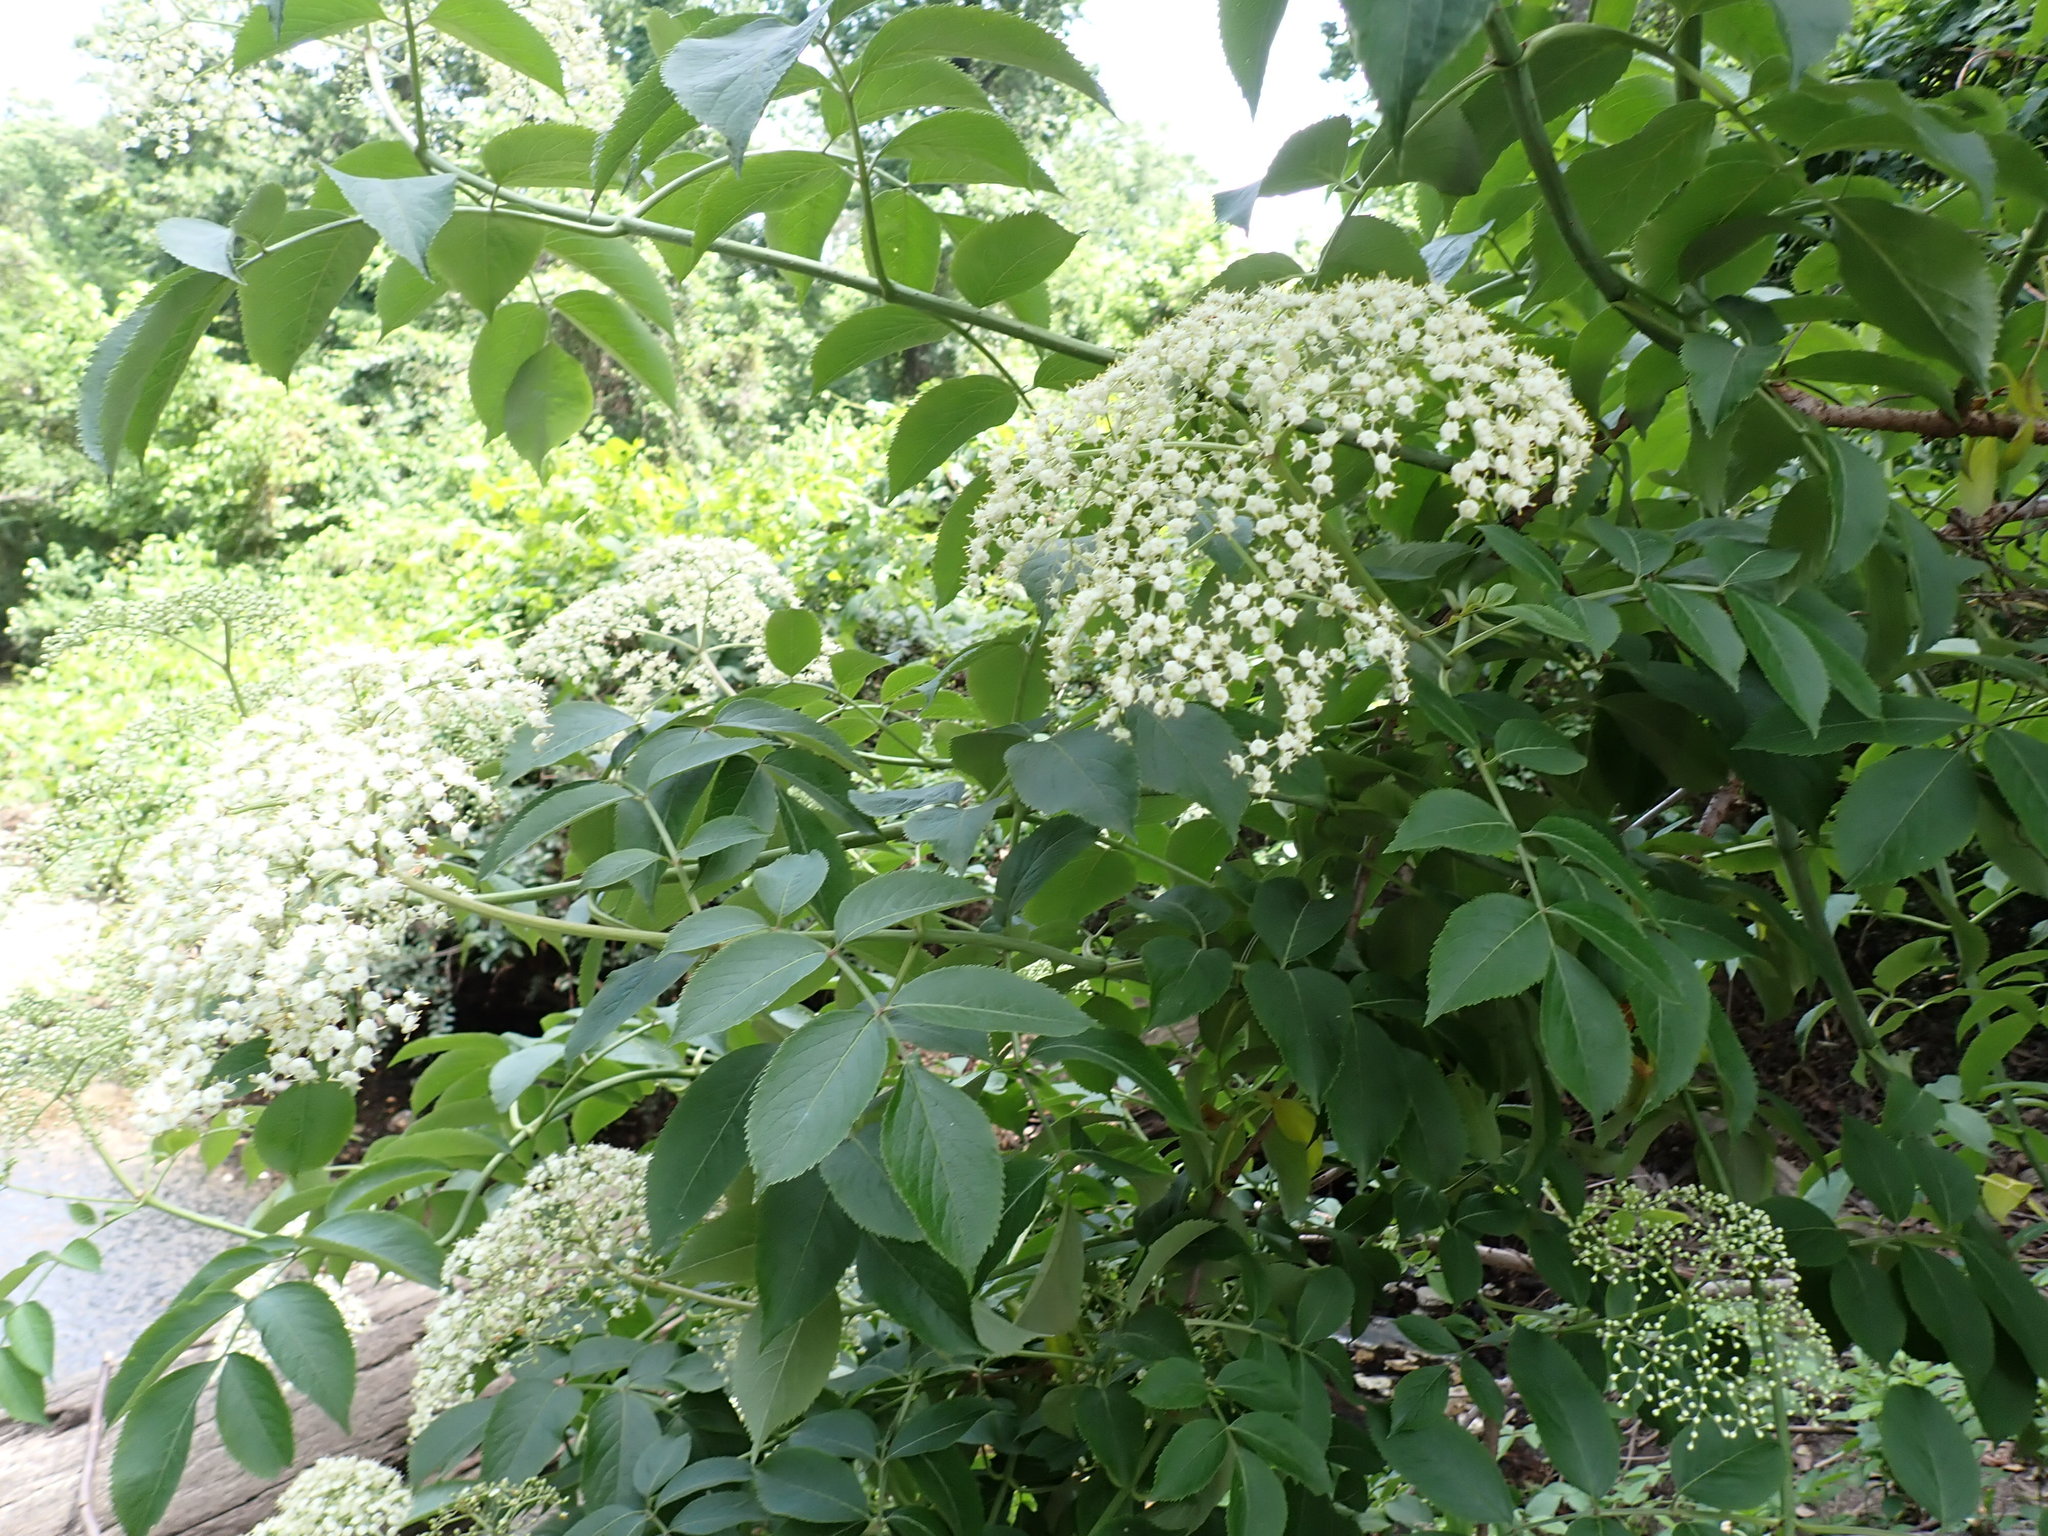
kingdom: Plantae
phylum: Tracheophyta
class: Magnoliopsida
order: Dipsacales
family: Viburnaceae
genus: Sambucus
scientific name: Sambucus canadensis
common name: American elder
